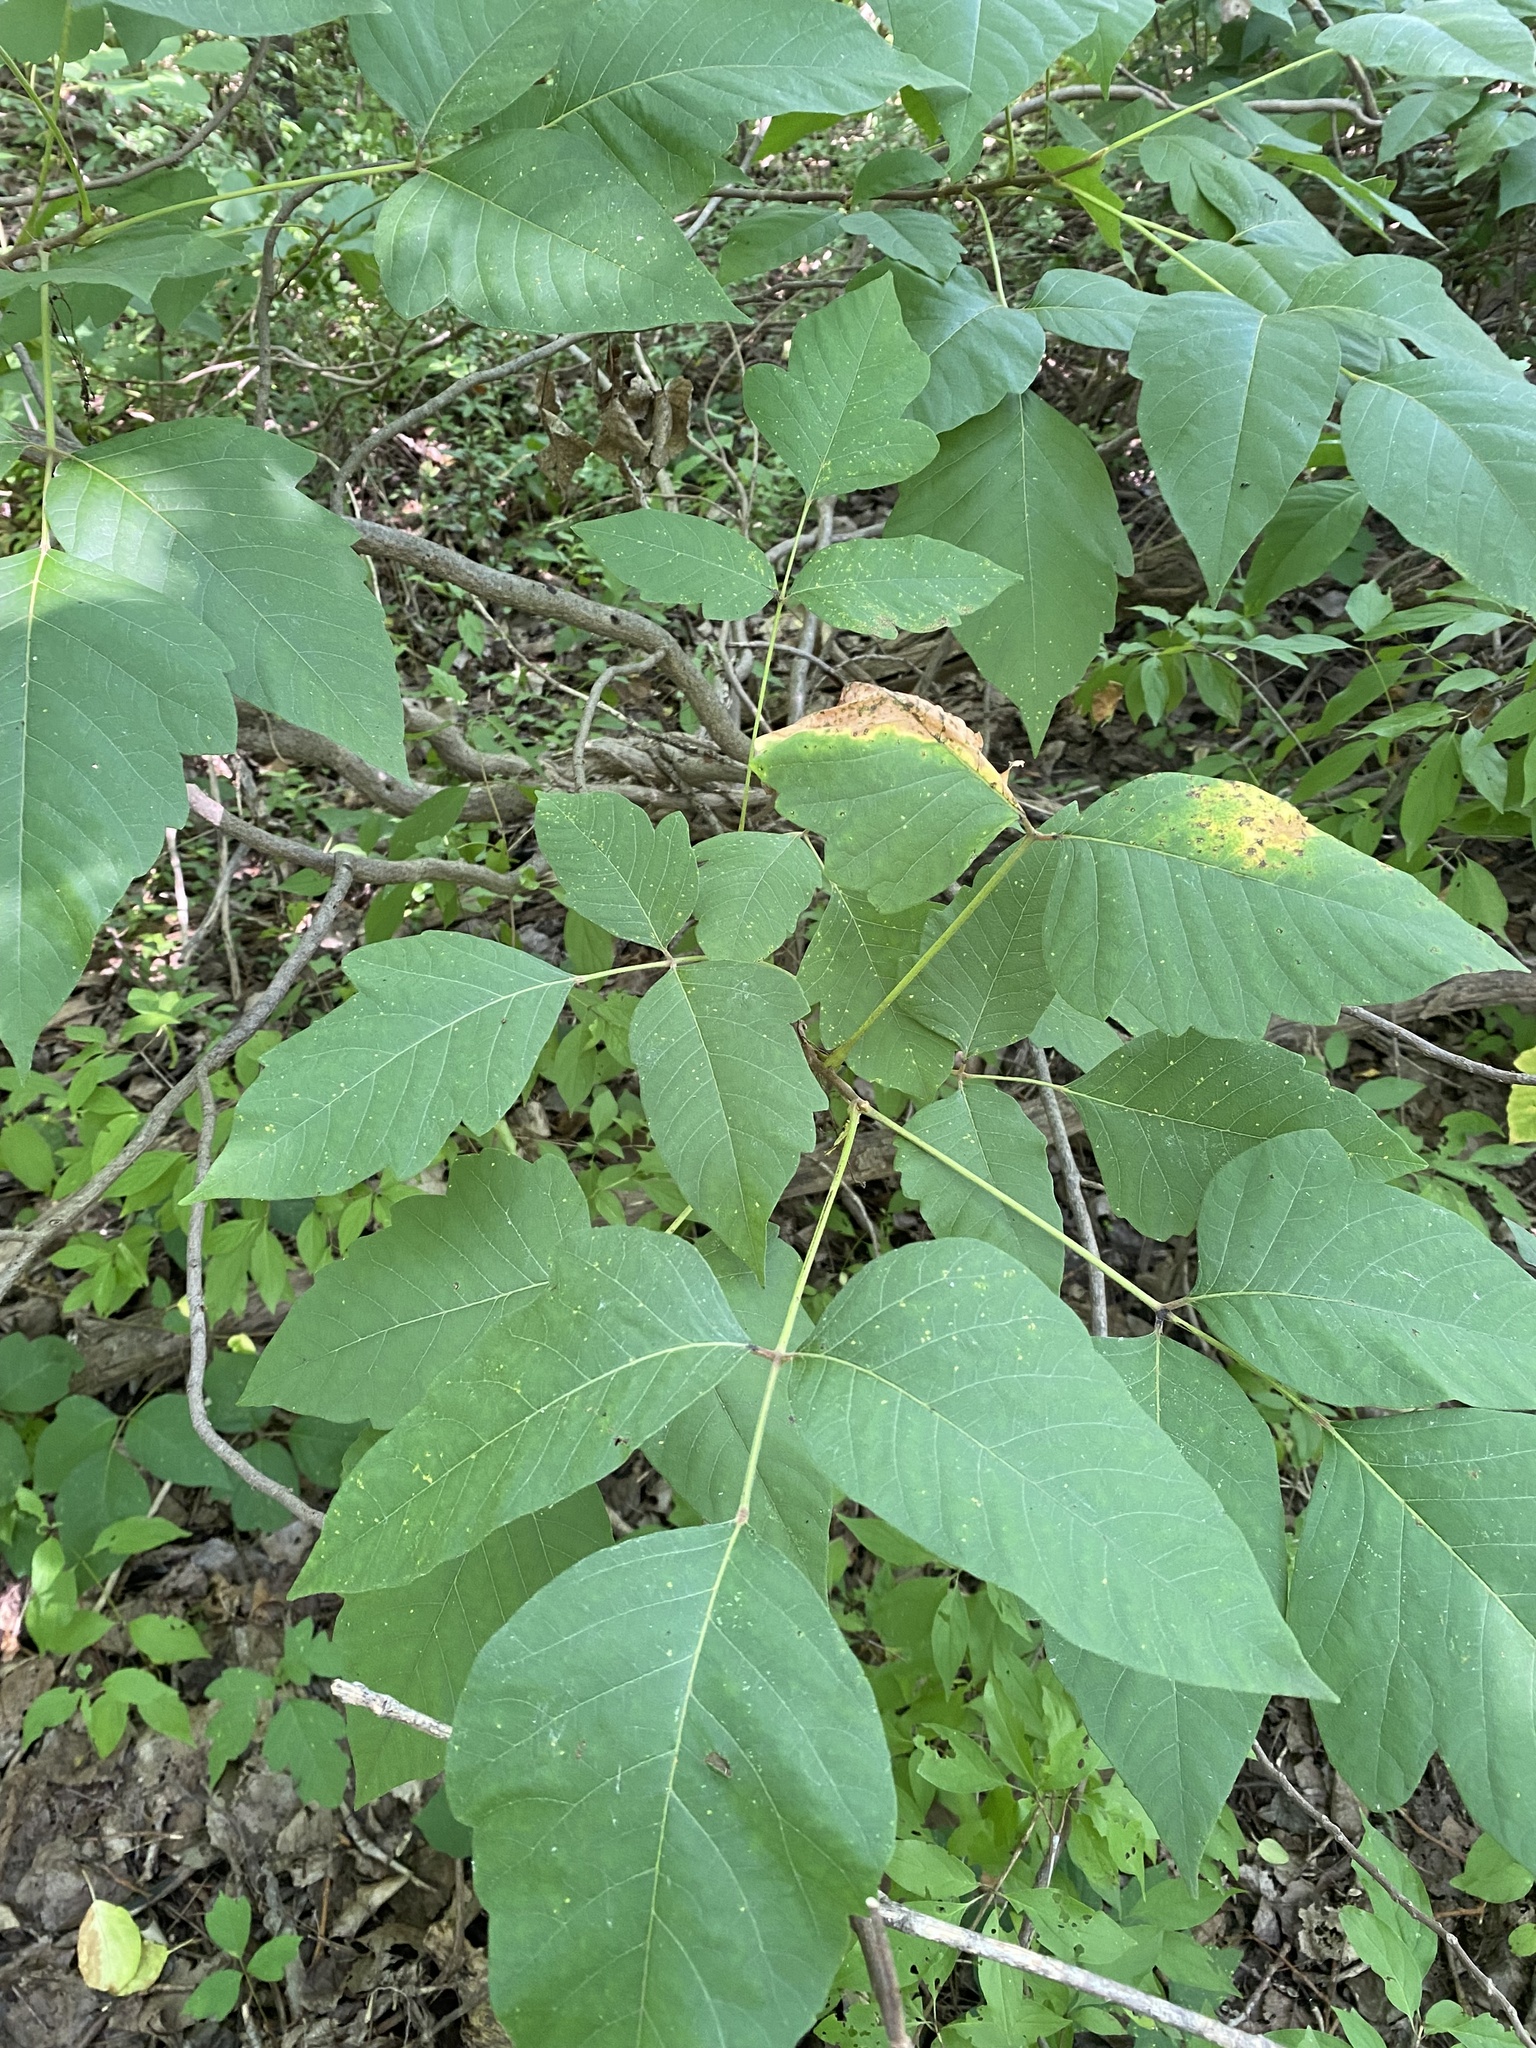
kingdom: Plantae
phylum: Tracheophyta
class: Magnoliopsida
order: Sapindales
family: Anacardiaceae
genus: Toxicodendron
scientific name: Toxicodendron radicans
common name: Poison ivy
